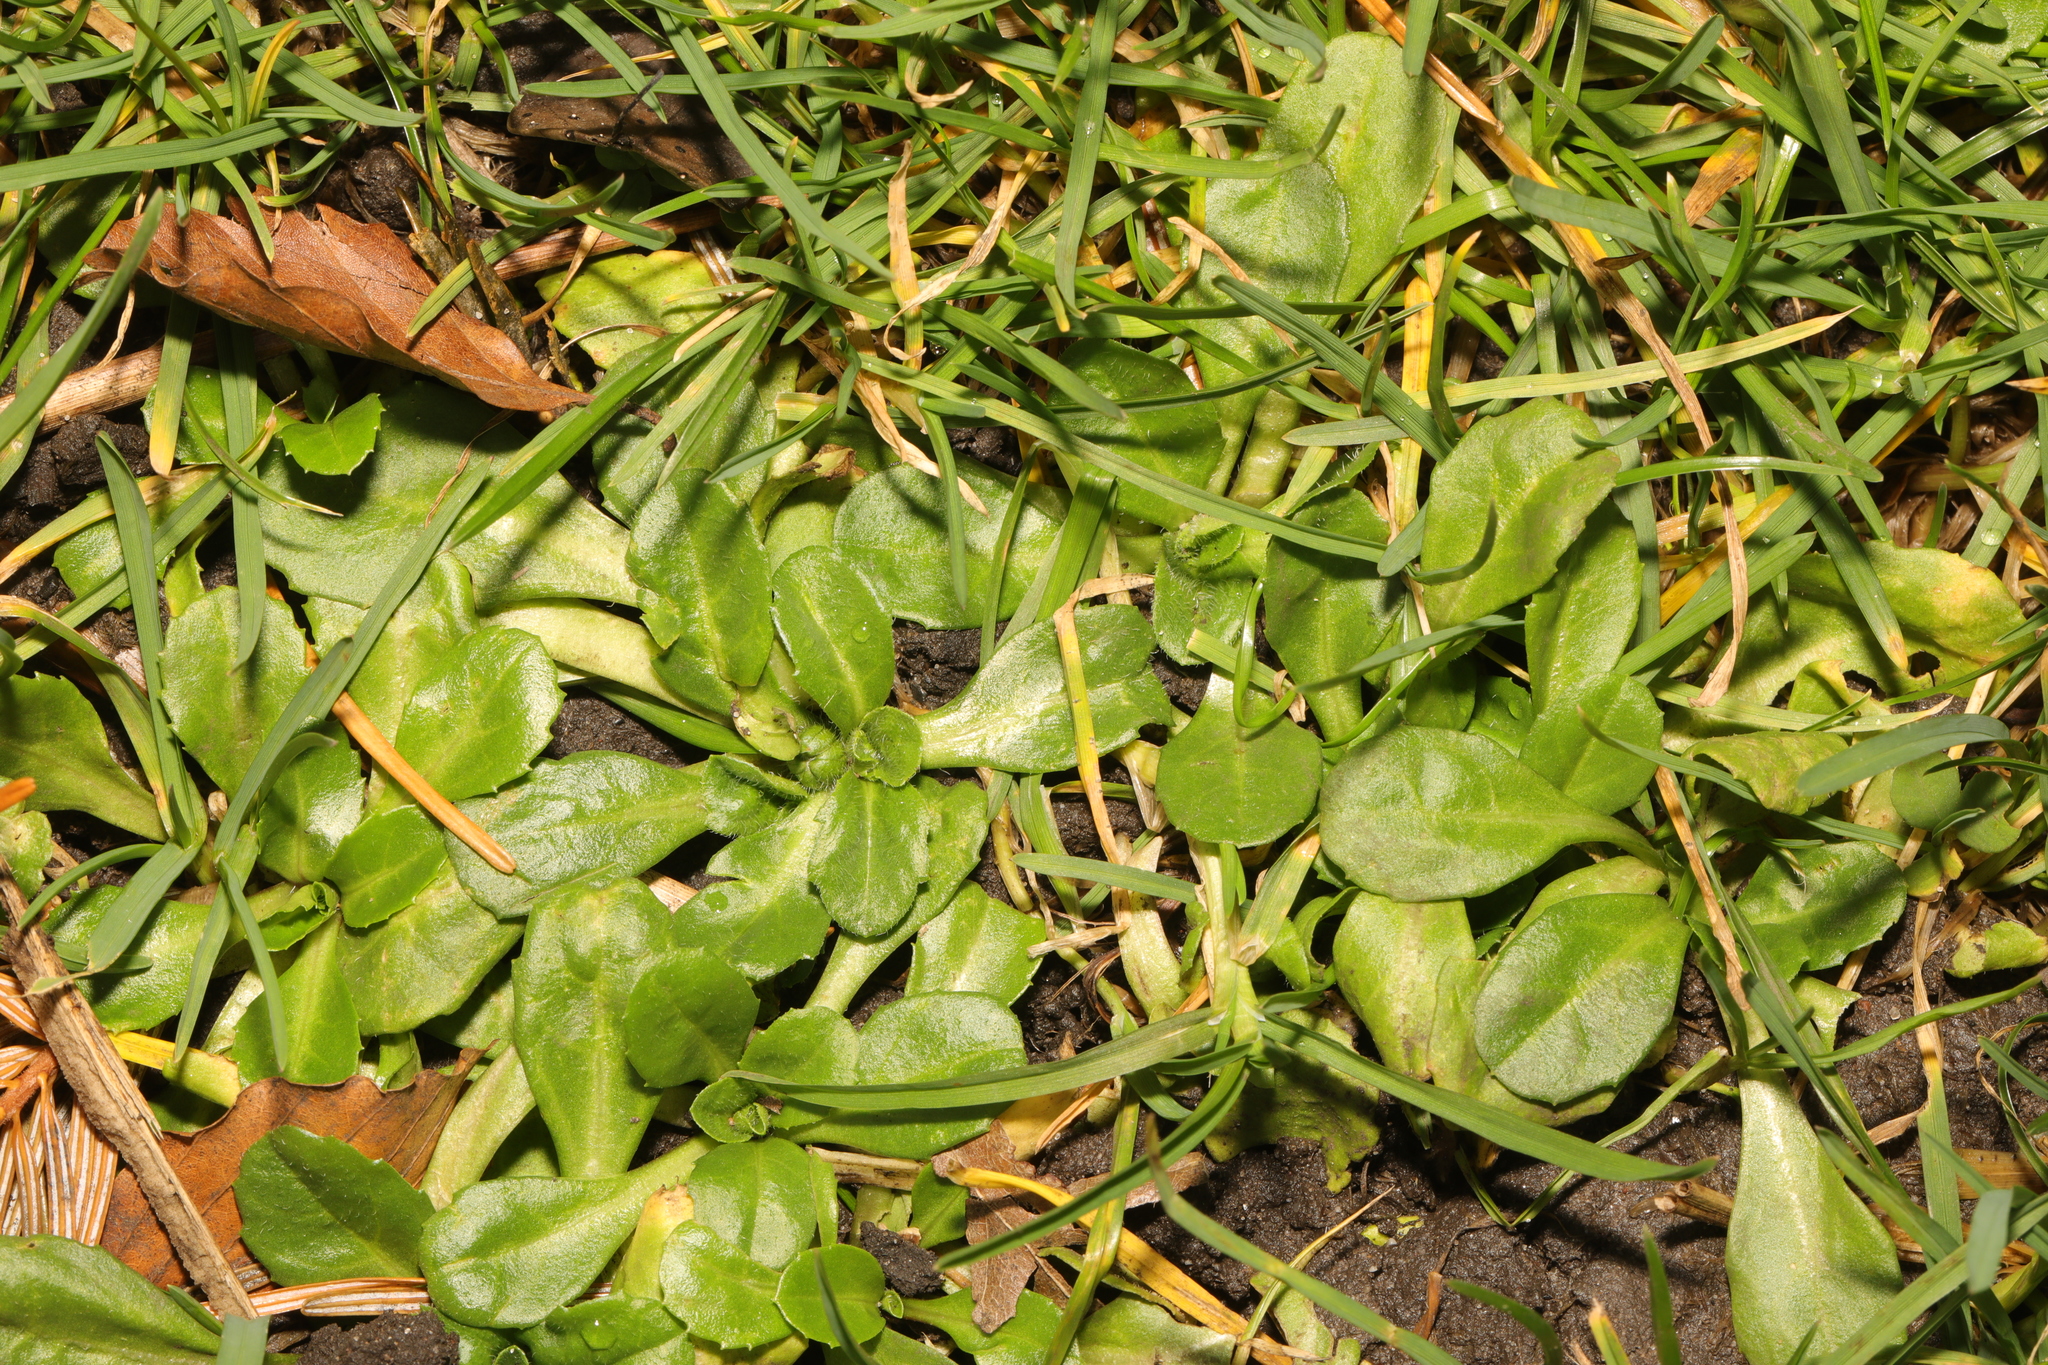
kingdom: Plantae
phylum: Tracheophyta
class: Magnoliopsida
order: Asterales
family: Asteraceae
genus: Bellis
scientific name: Bellis perennis
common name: Lawndaisy
